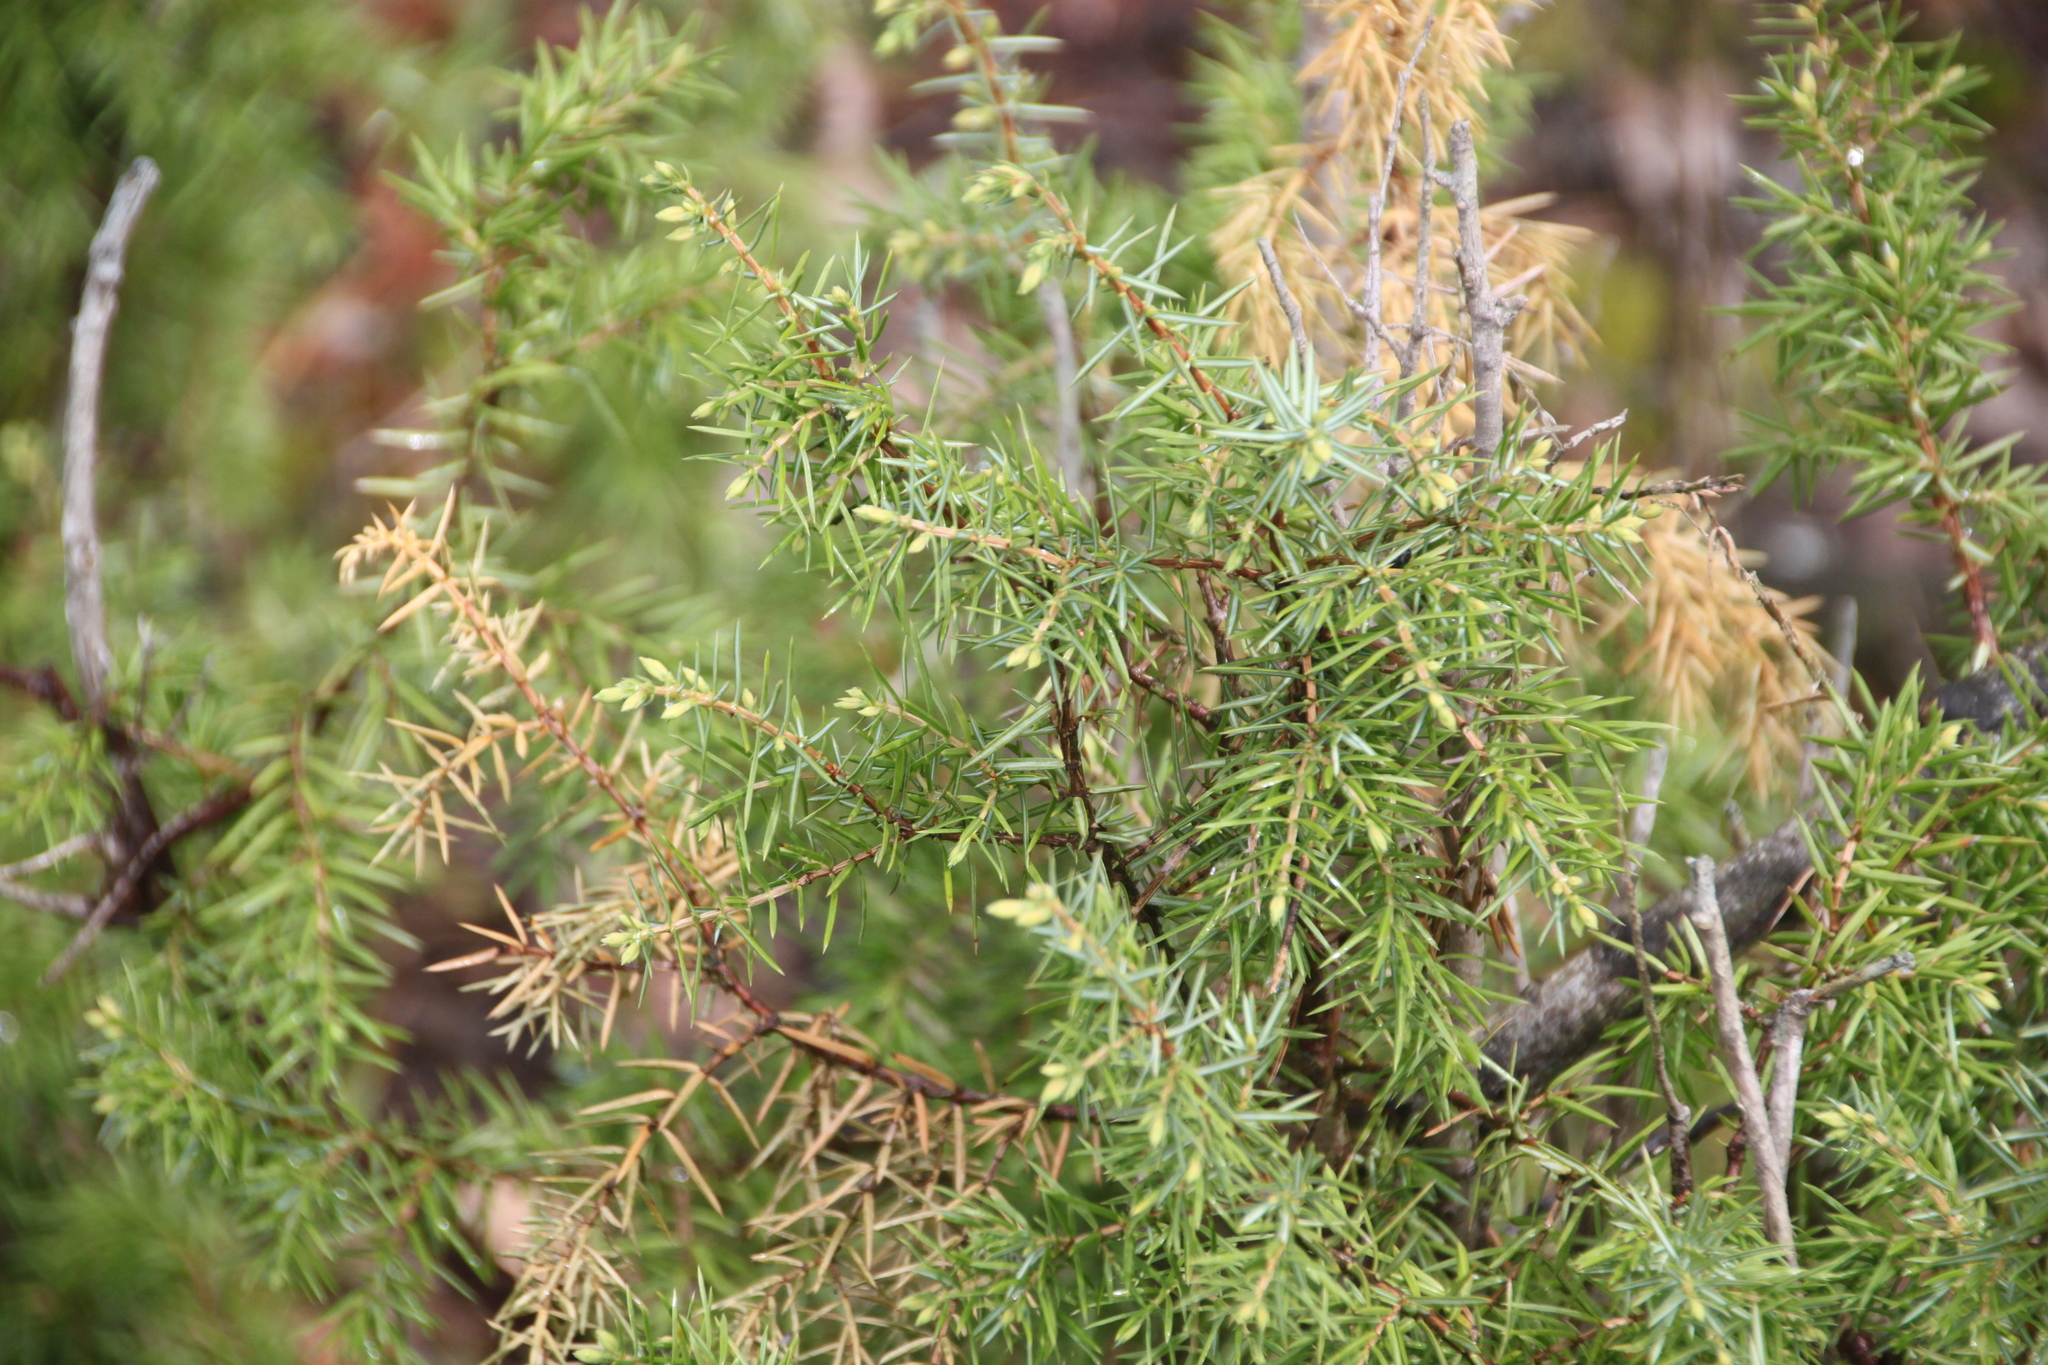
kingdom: Plantae
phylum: Tracheophyta
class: Pinopsida
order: Pinales
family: Cupressaceae
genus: Juniperus
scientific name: Juniperus communis
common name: Common juniper
